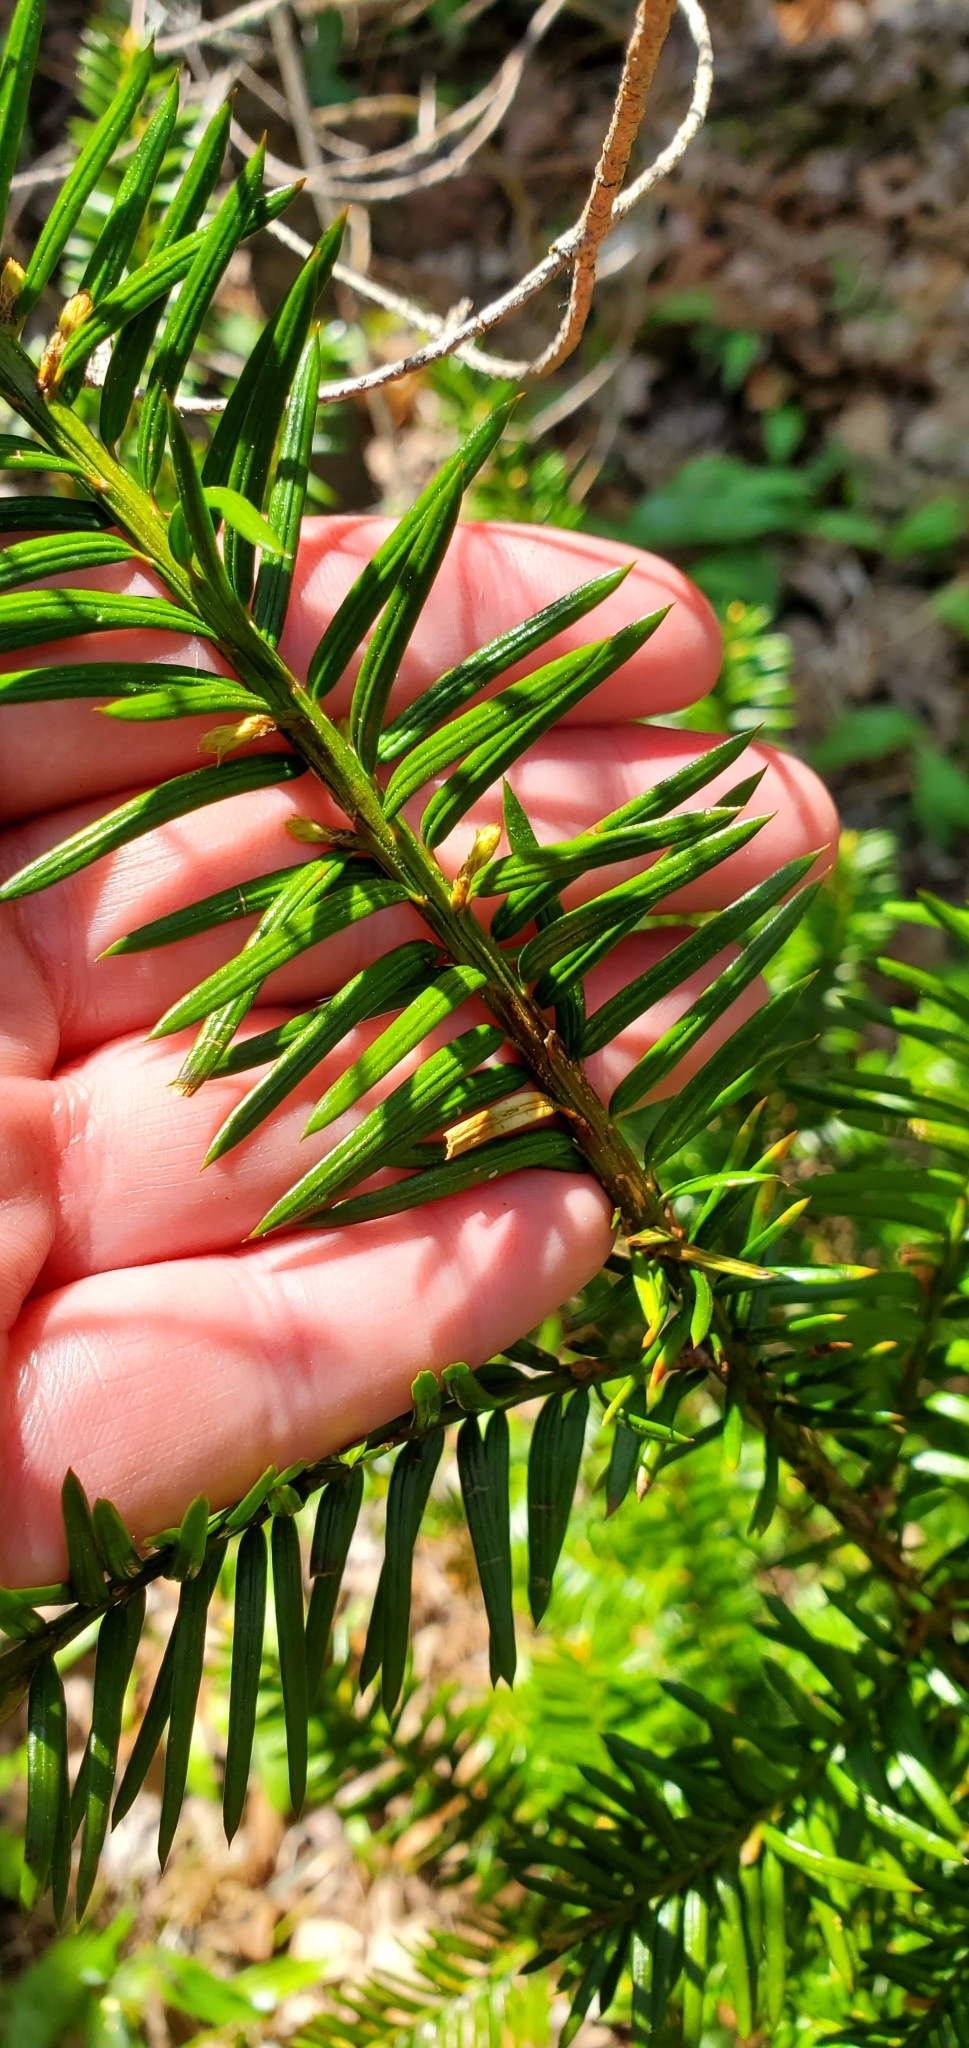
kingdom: Plantae
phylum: Tracheophyta
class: Pinopsida
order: Pinales
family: Taxaceae
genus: Taxus
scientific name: Taxus canadensis
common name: American yew
